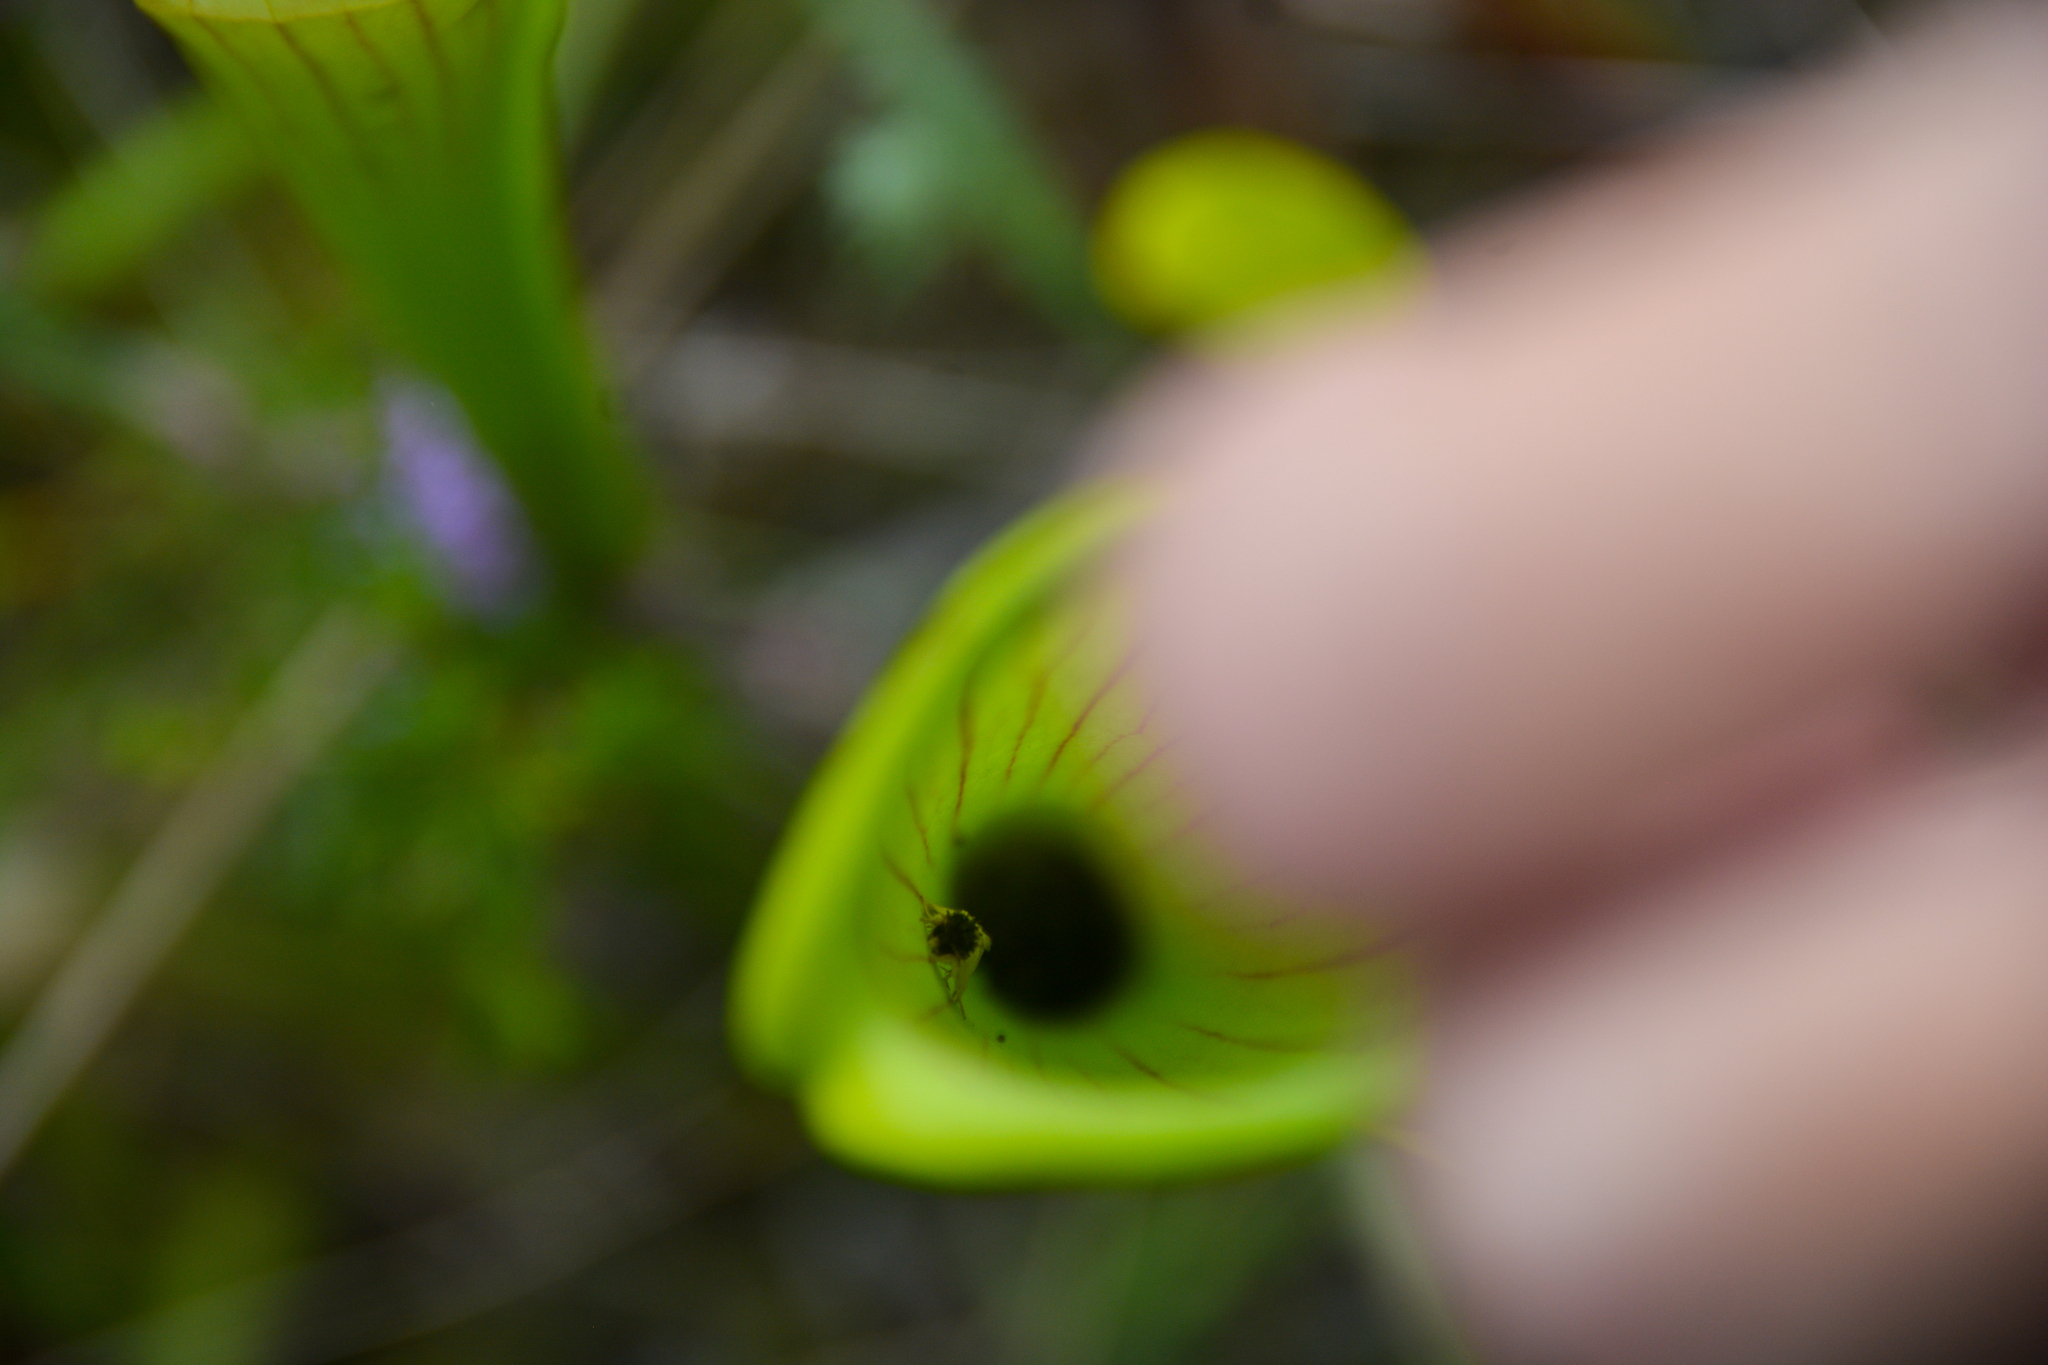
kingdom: Animalia
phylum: Arthropoda
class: Insecta
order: Lepidoptera
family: Noctuidae
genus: Exyra
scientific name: Exyra semicrocea
